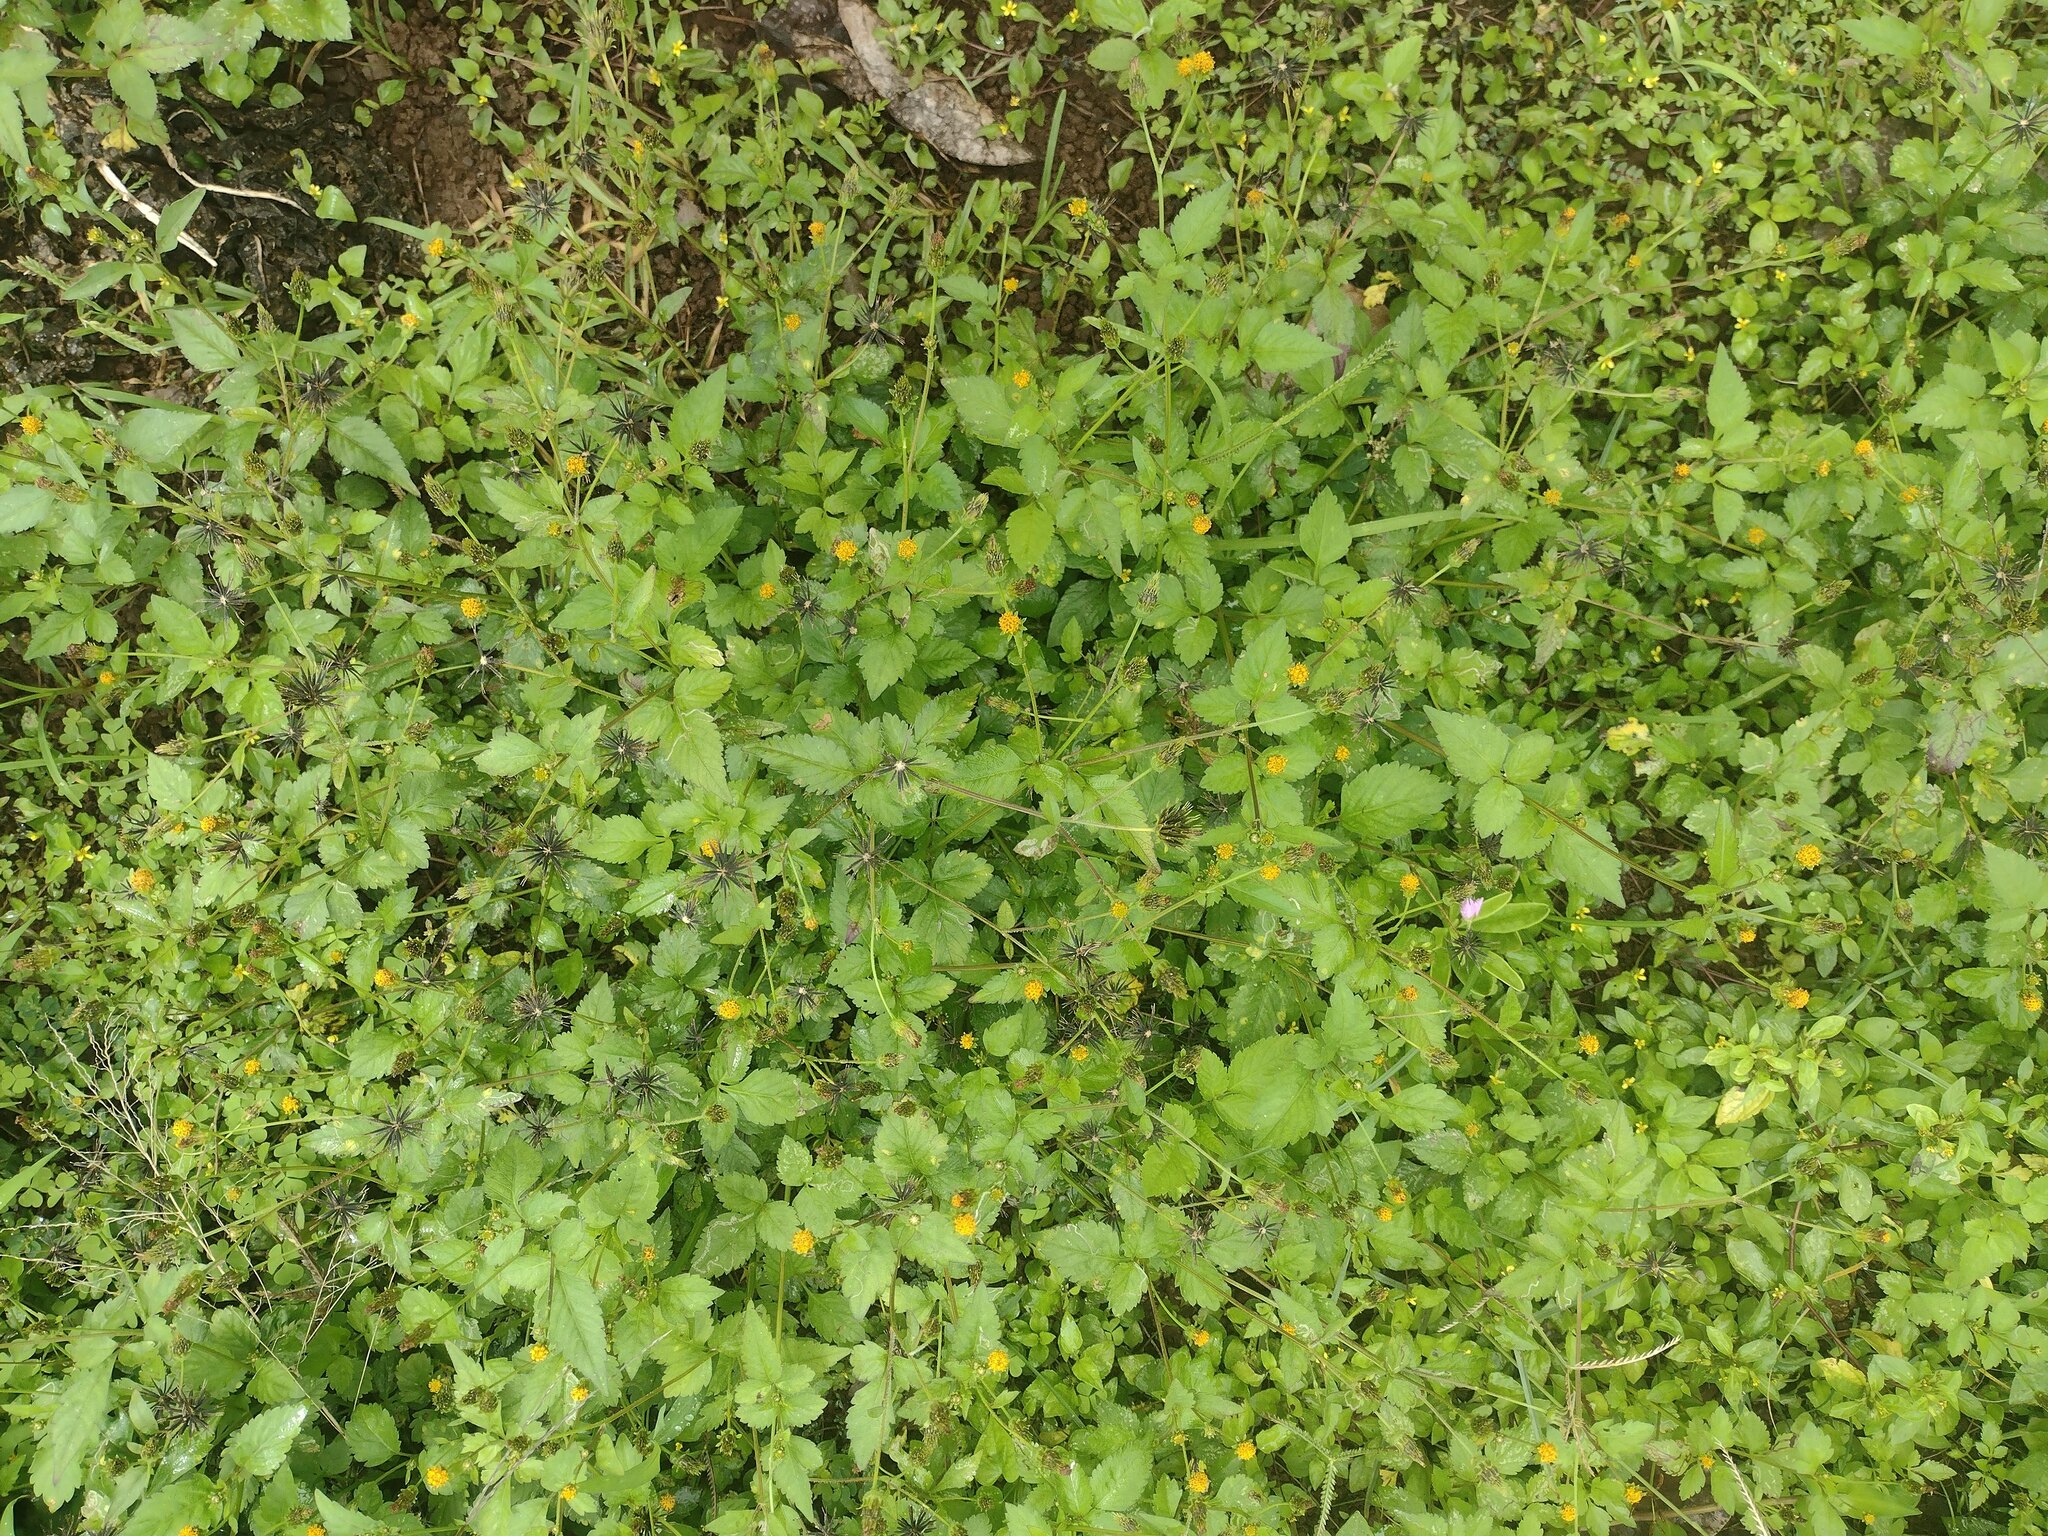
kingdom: Plantae
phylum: Tracheophyta
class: Magnoliopsida
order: Asterales
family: Asteraceae
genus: Bidens
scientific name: Bidens pilosa
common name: Black-jack
